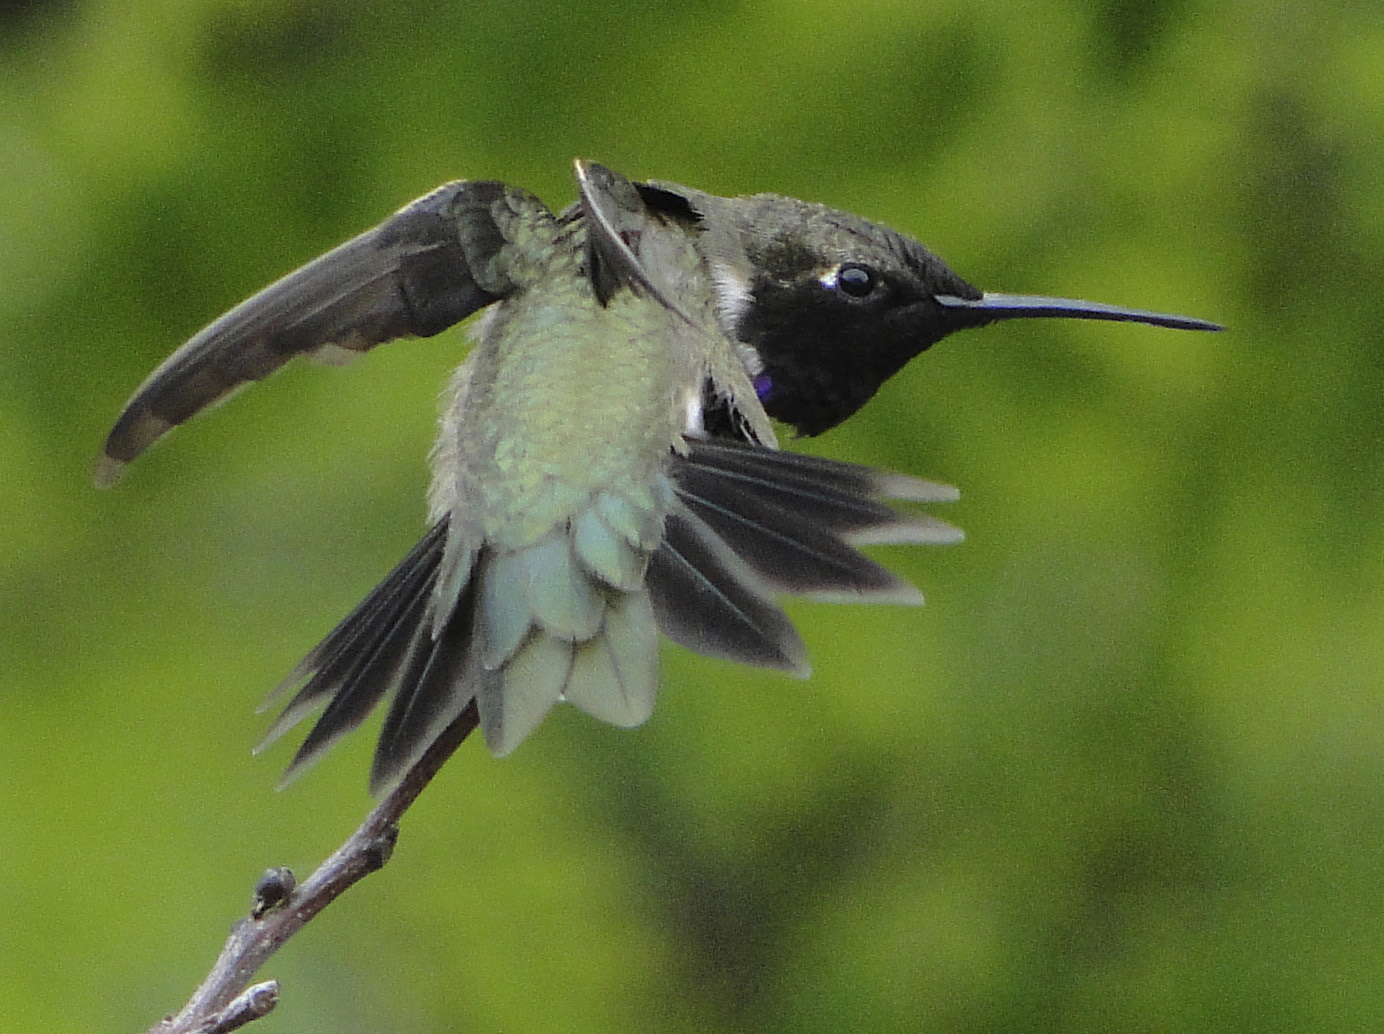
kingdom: Animalia
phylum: Chordata
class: Aves
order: Apodiformes
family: Trochilidae
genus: Archilochus
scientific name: Archilochus alexandri
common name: Black-chinned hummingbird
